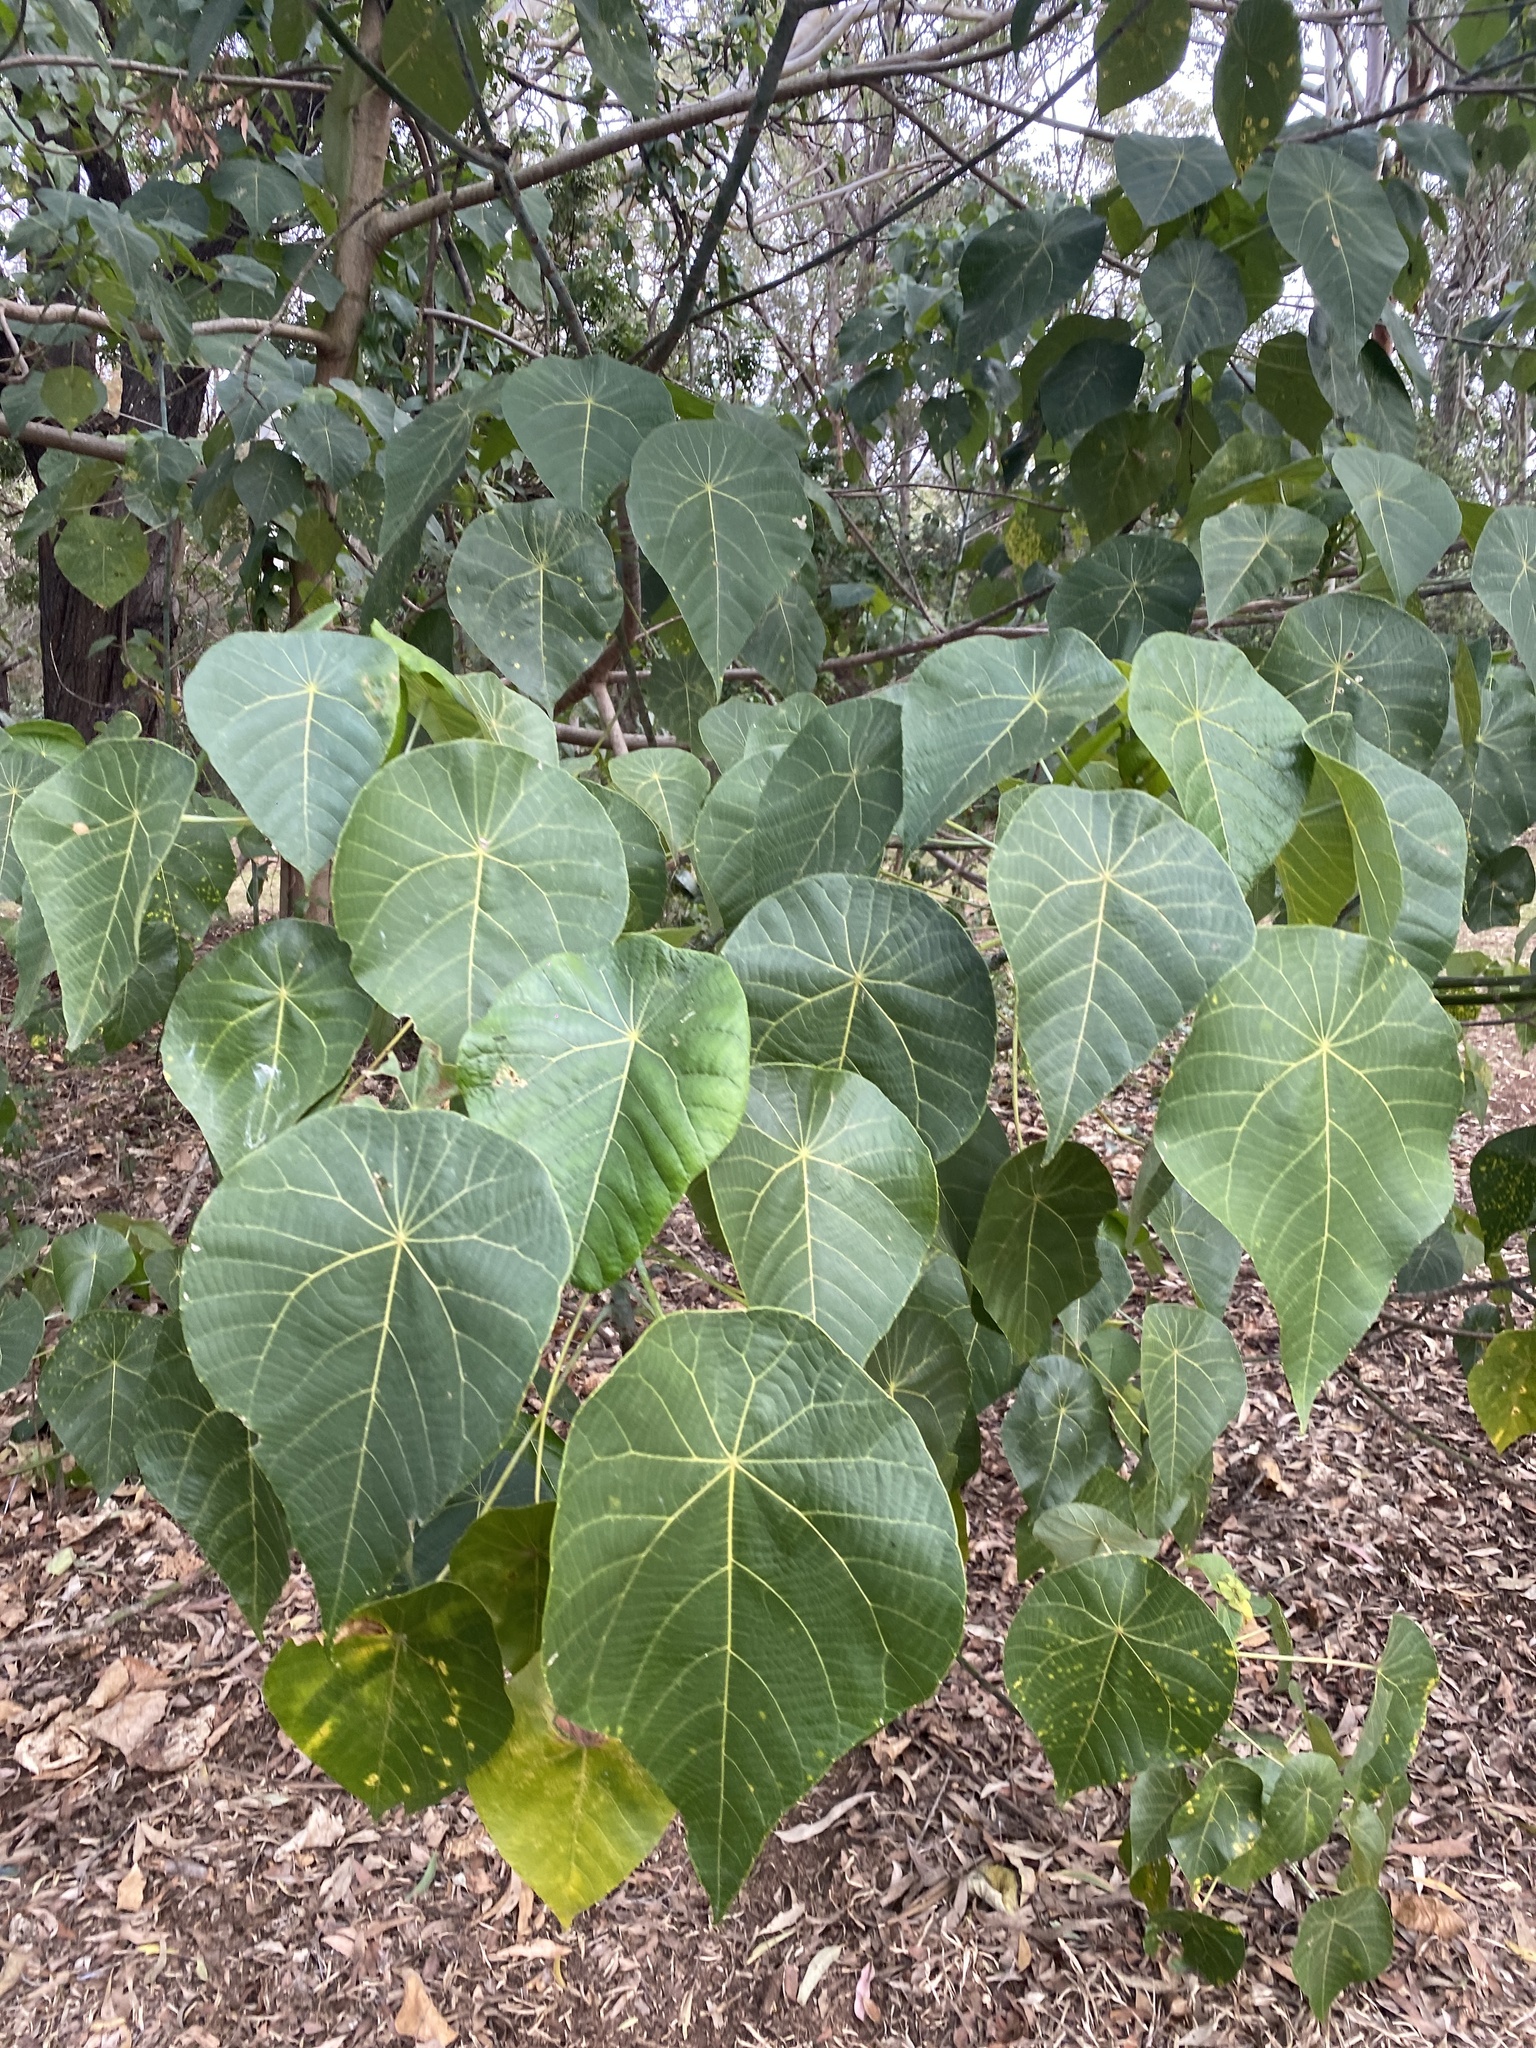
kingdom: Plantae
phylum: Tracheophyta
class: Magnoliopsida
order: Malpighiales
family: Euphorbiaceae
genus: Macaranga
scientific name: Macaranga tanarius
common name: Parasol leaf tree
